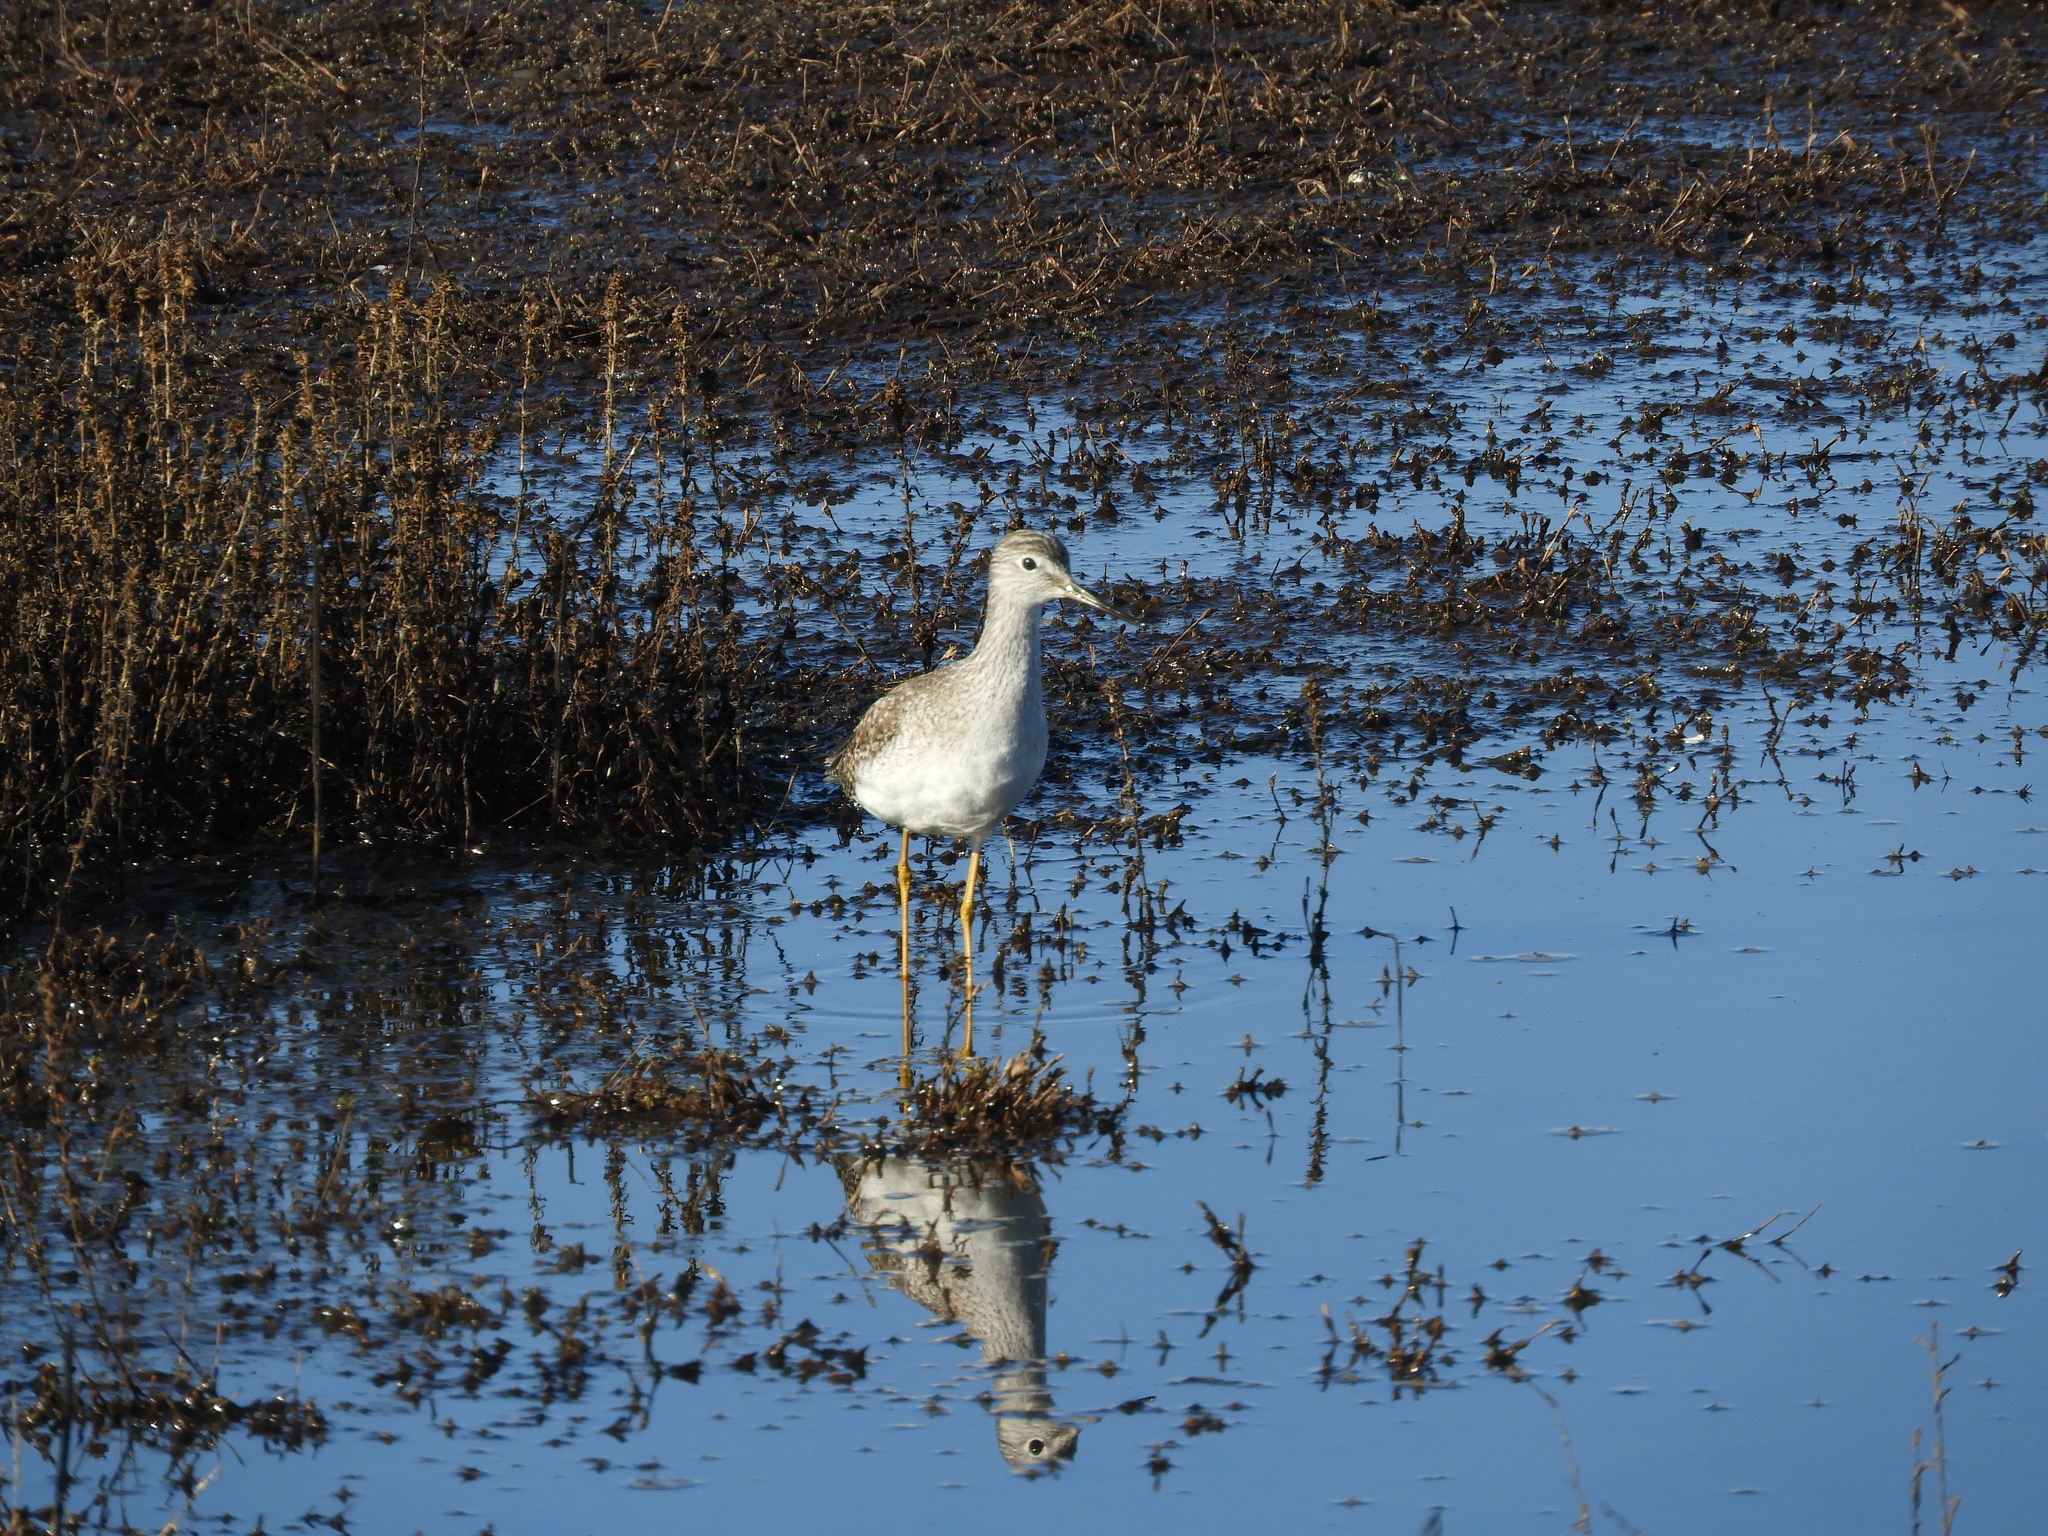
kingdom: Animalia
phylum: Chordata
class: Aves
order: Charadriiformes
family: Scolopacidae
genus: Tringa
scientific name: Tringa melanoleuca
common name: Greater yellowlegs
